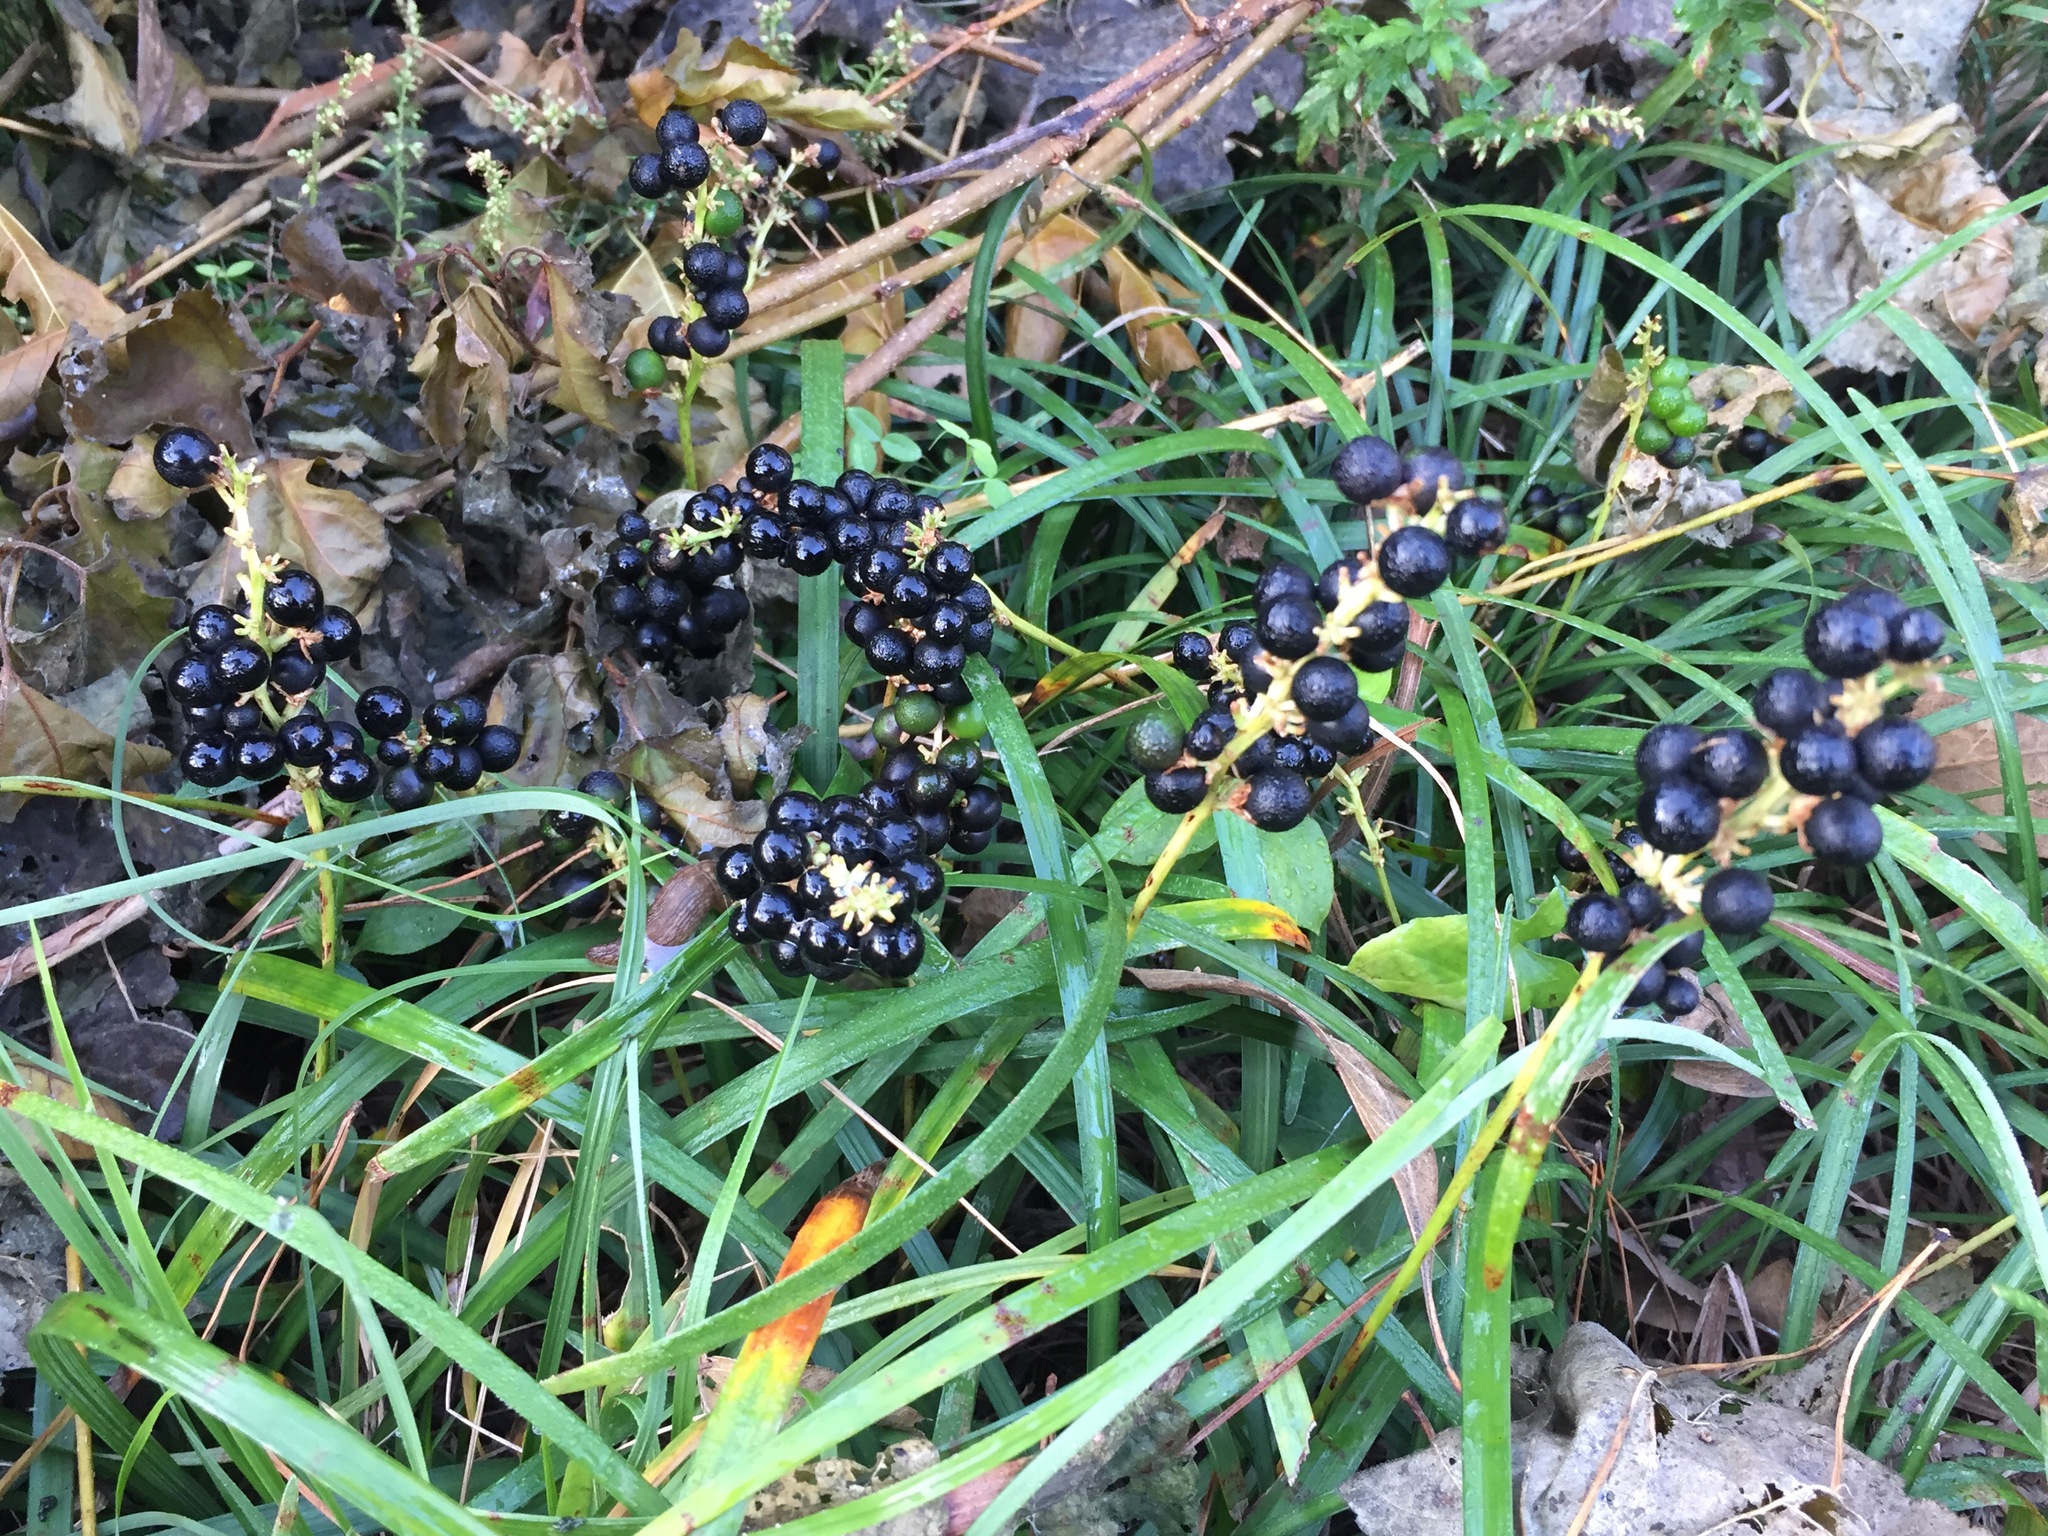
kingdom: Plantae
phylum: Tracheophyta
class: Liliopsida
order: Asparagales
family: Asparagaceae
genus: Liriope
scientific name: Liriope muscari
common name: Big blue lilyturf
